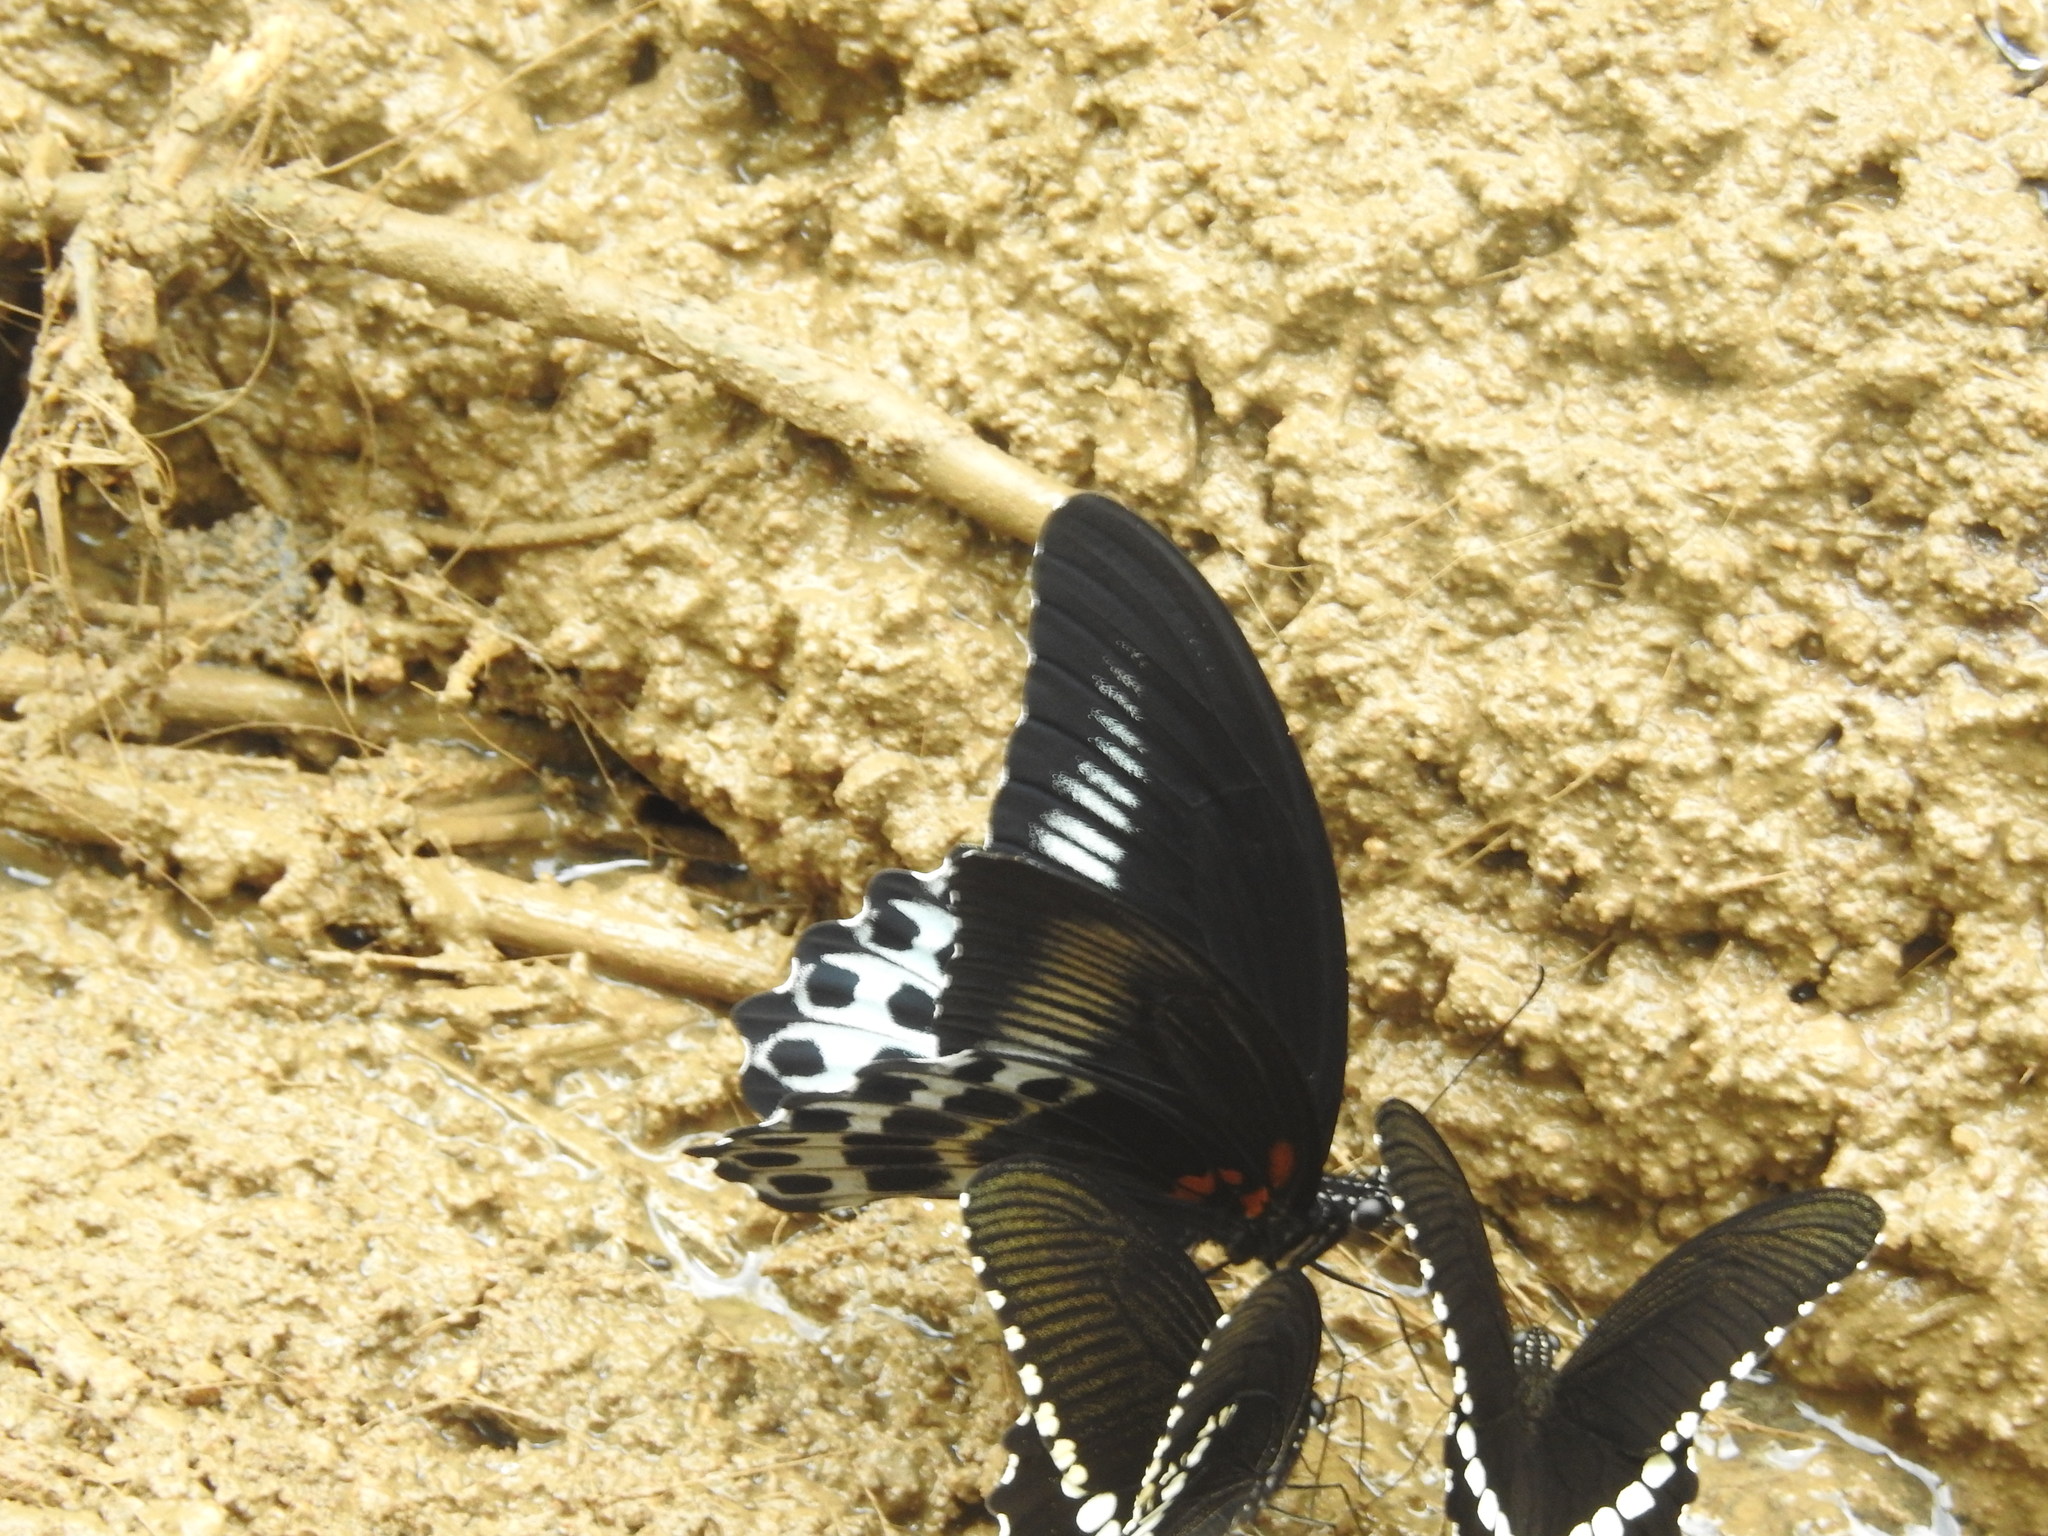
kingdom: Animalia
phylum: Arthropoda
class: Insecta
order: Lepidoptera
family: Papilionidae
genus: Papilio
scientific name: Papilio memnon
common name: Great mormon
